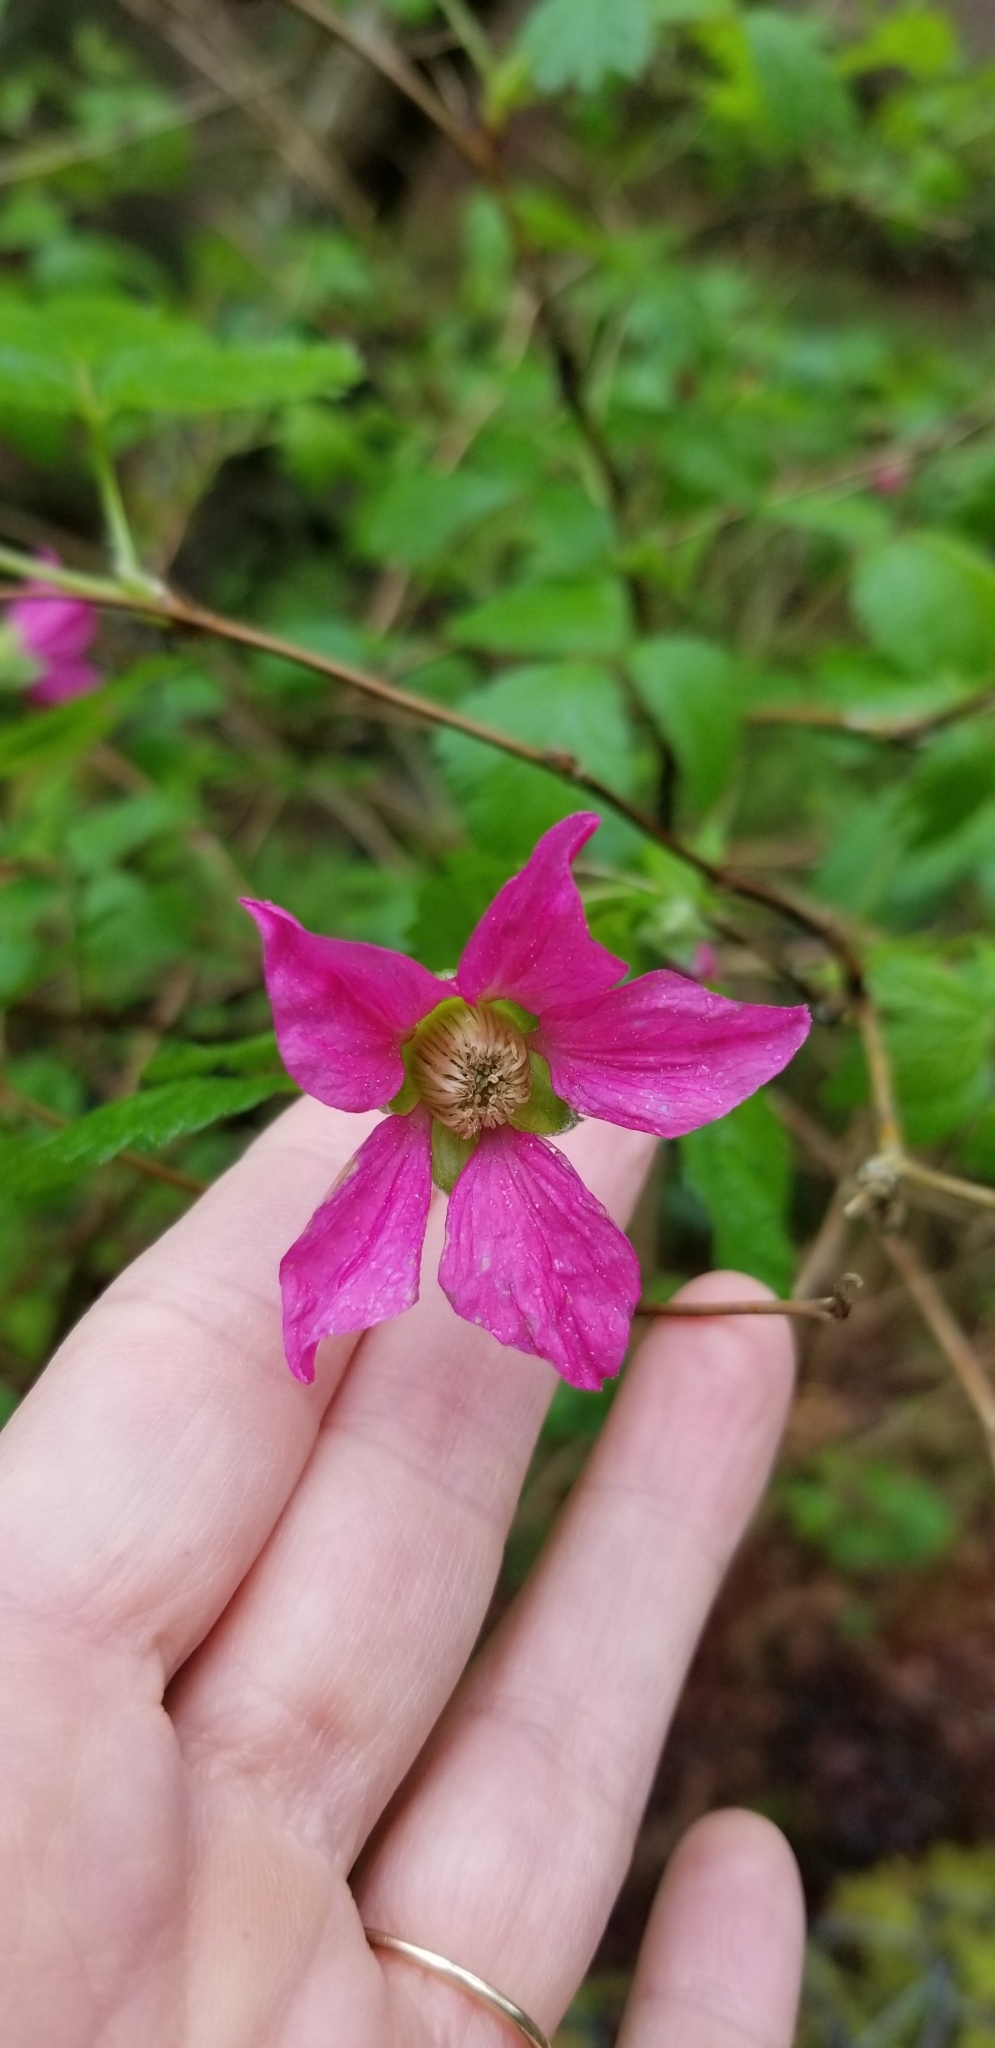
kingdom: Plantae
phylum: Tracheophyta
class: Magnoliopsida
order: Rosales
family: Rosaceae
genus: Rubus
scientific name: Rubus spectabilis
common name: Salmonberry
